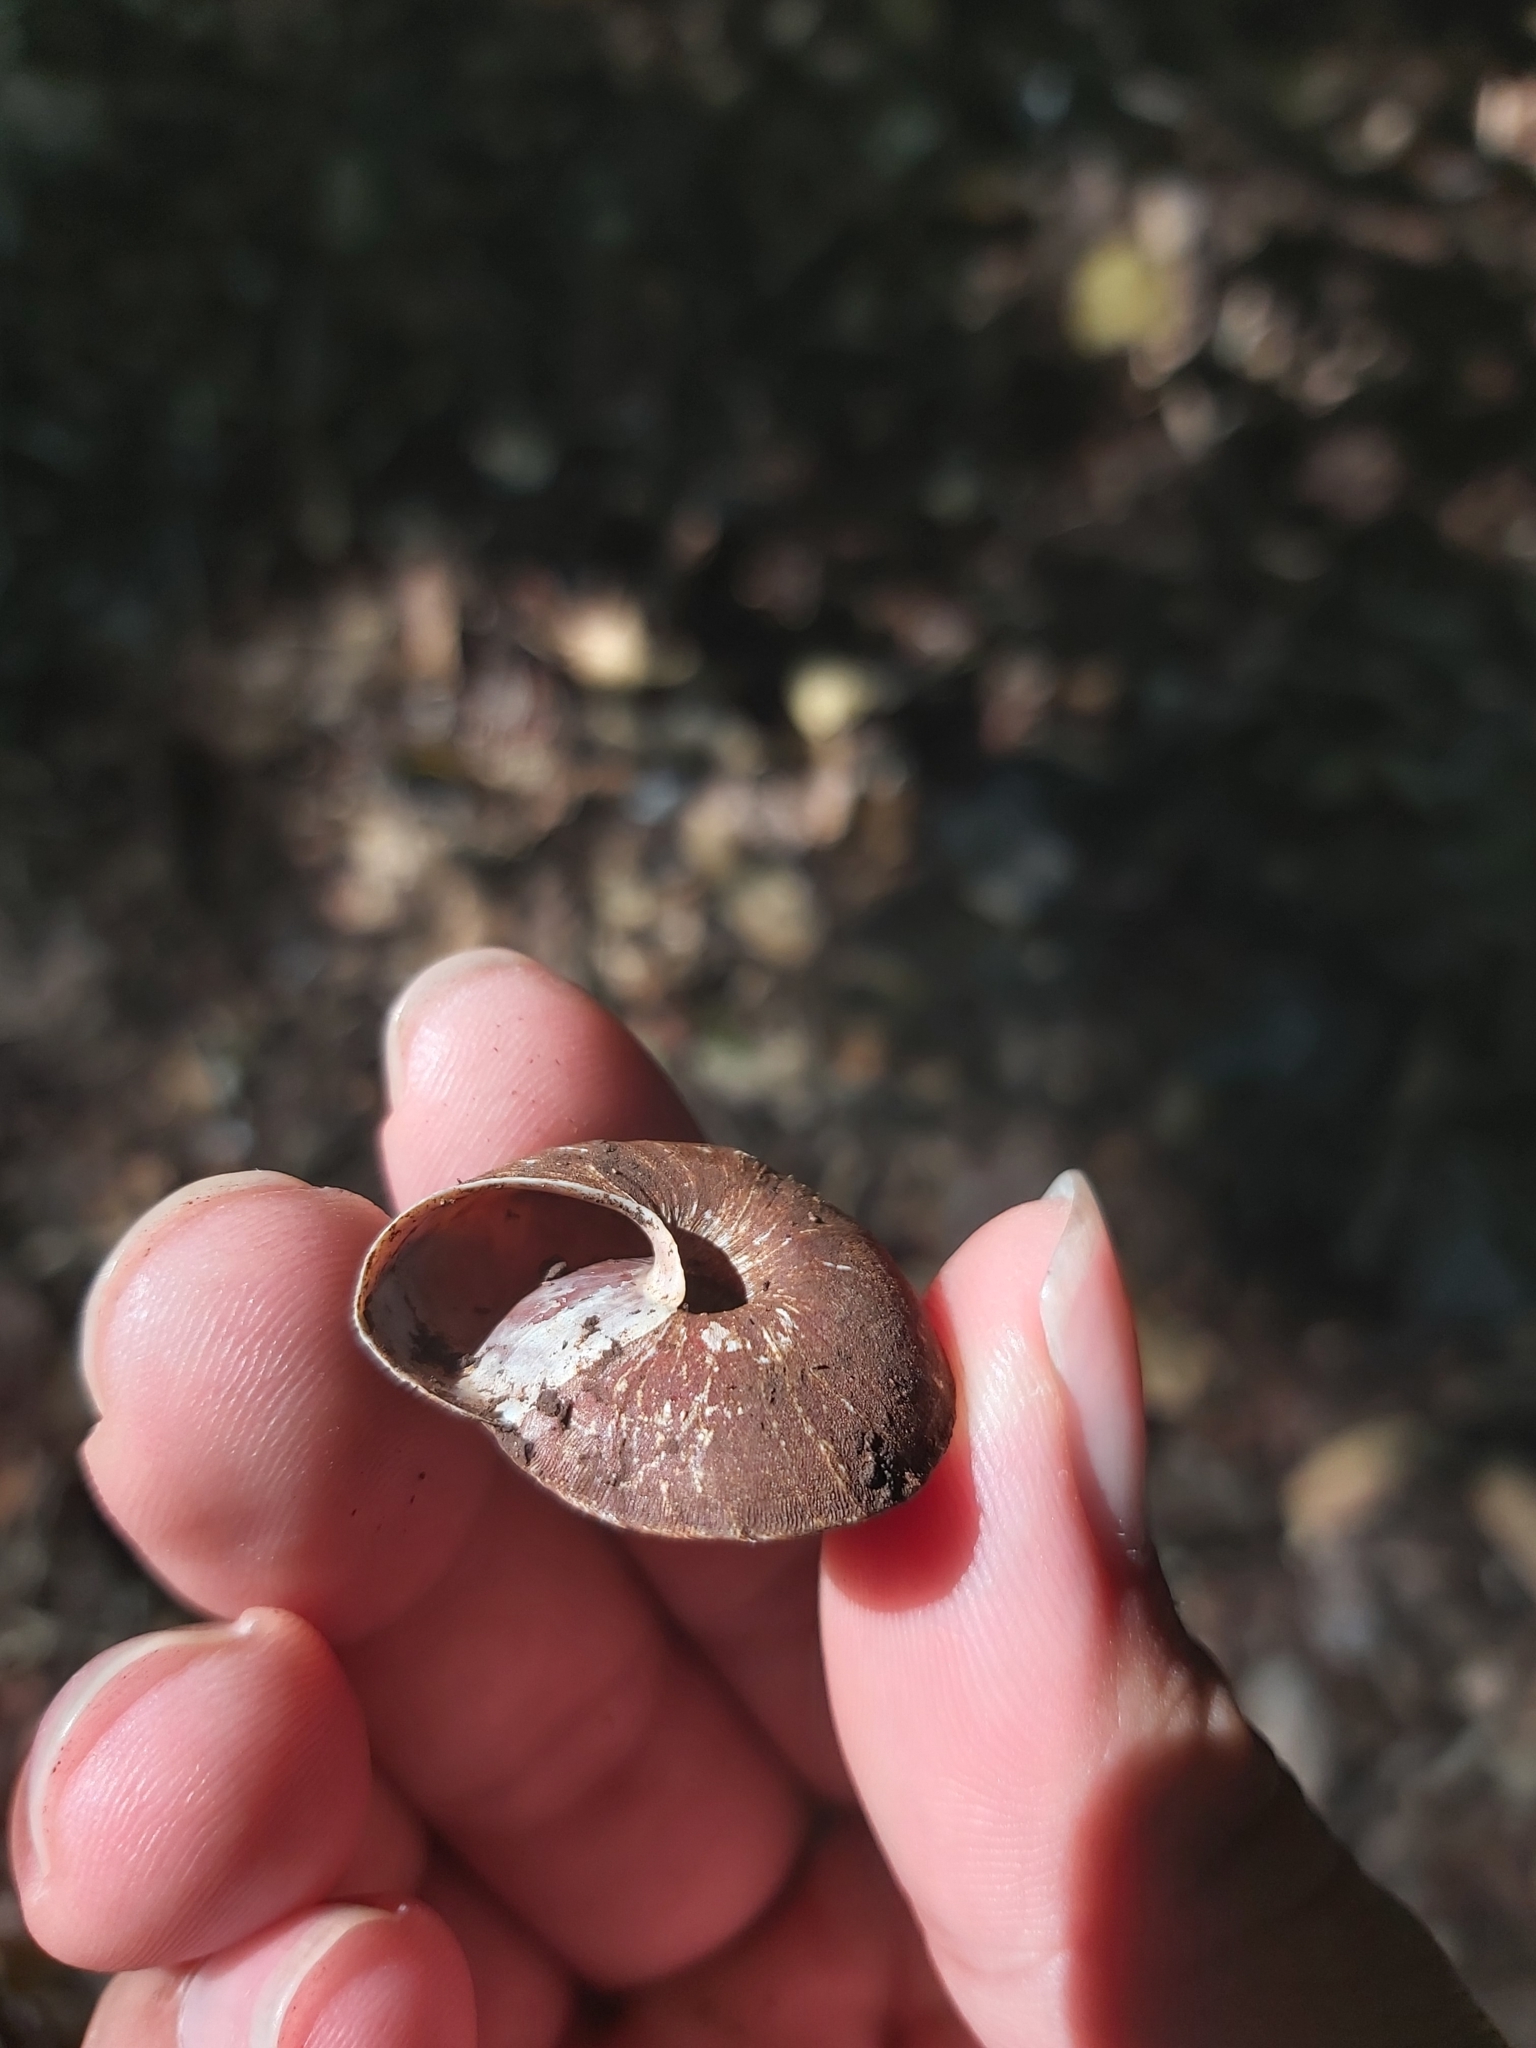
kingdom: Animalia
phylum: Mollusca
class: Gastropoda
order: Stylommatophora
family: Camaenidae
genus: Jacksonena
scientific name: Jacksonena rudis
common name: Atherton tableland keeled snail
